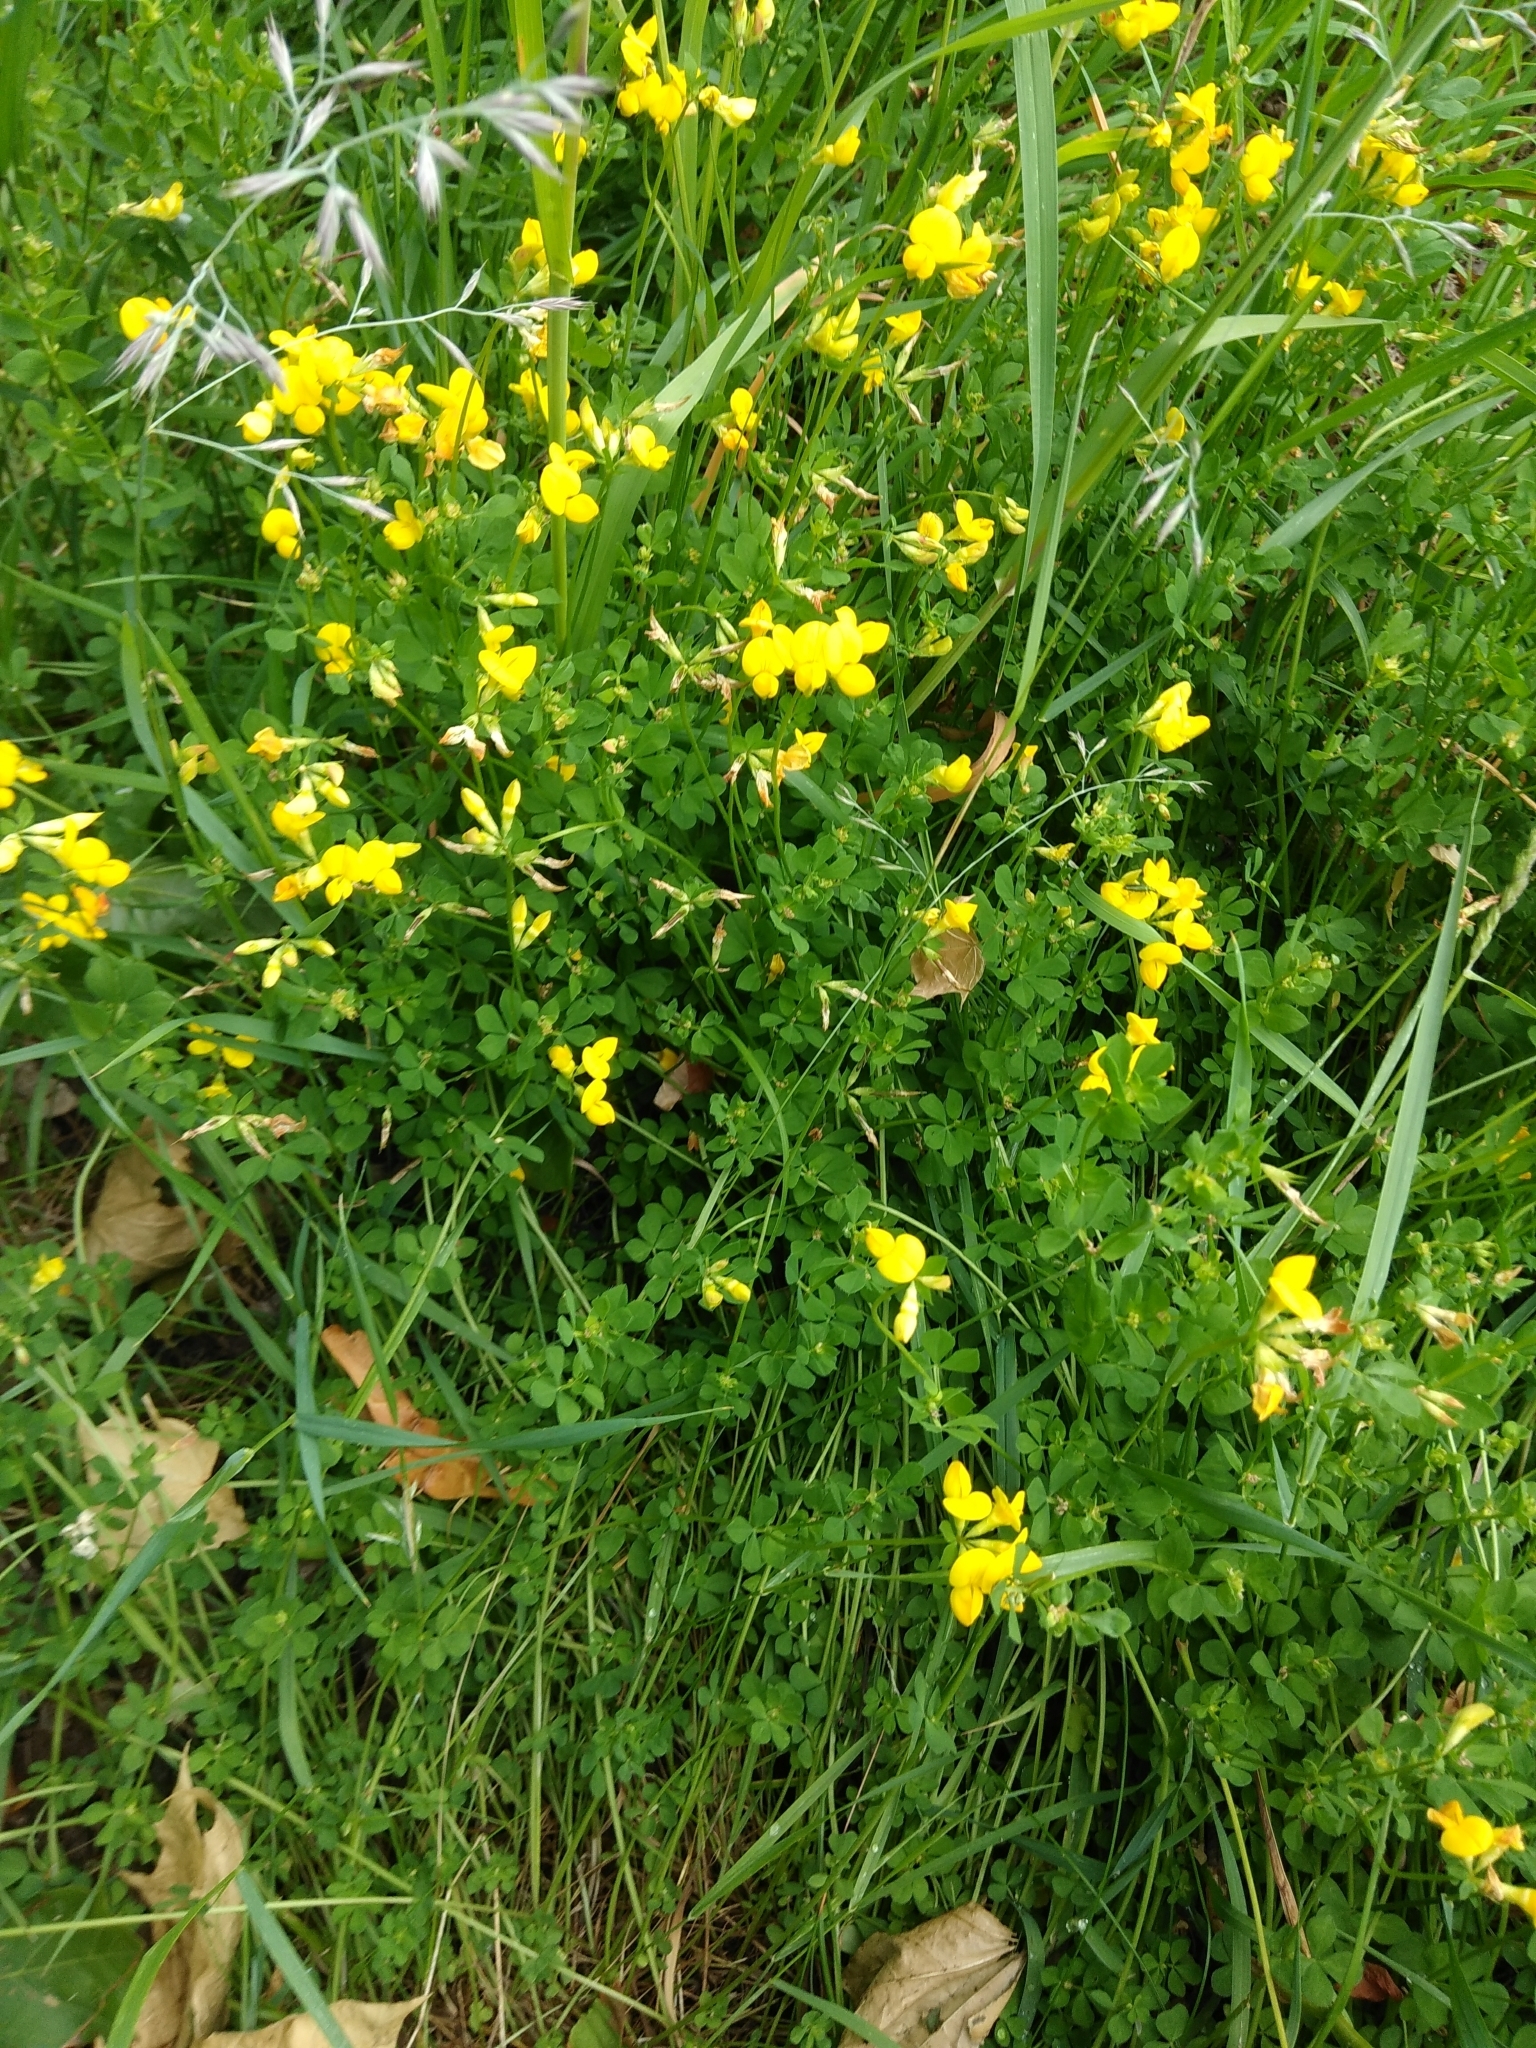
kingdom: Plantae
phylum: Tracheophyta
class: Magnoliopsida
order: Fabales
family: Fabaceae
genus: Lotus
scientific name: Lotus corniculatus
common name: Common bird's-foot-trefoil
